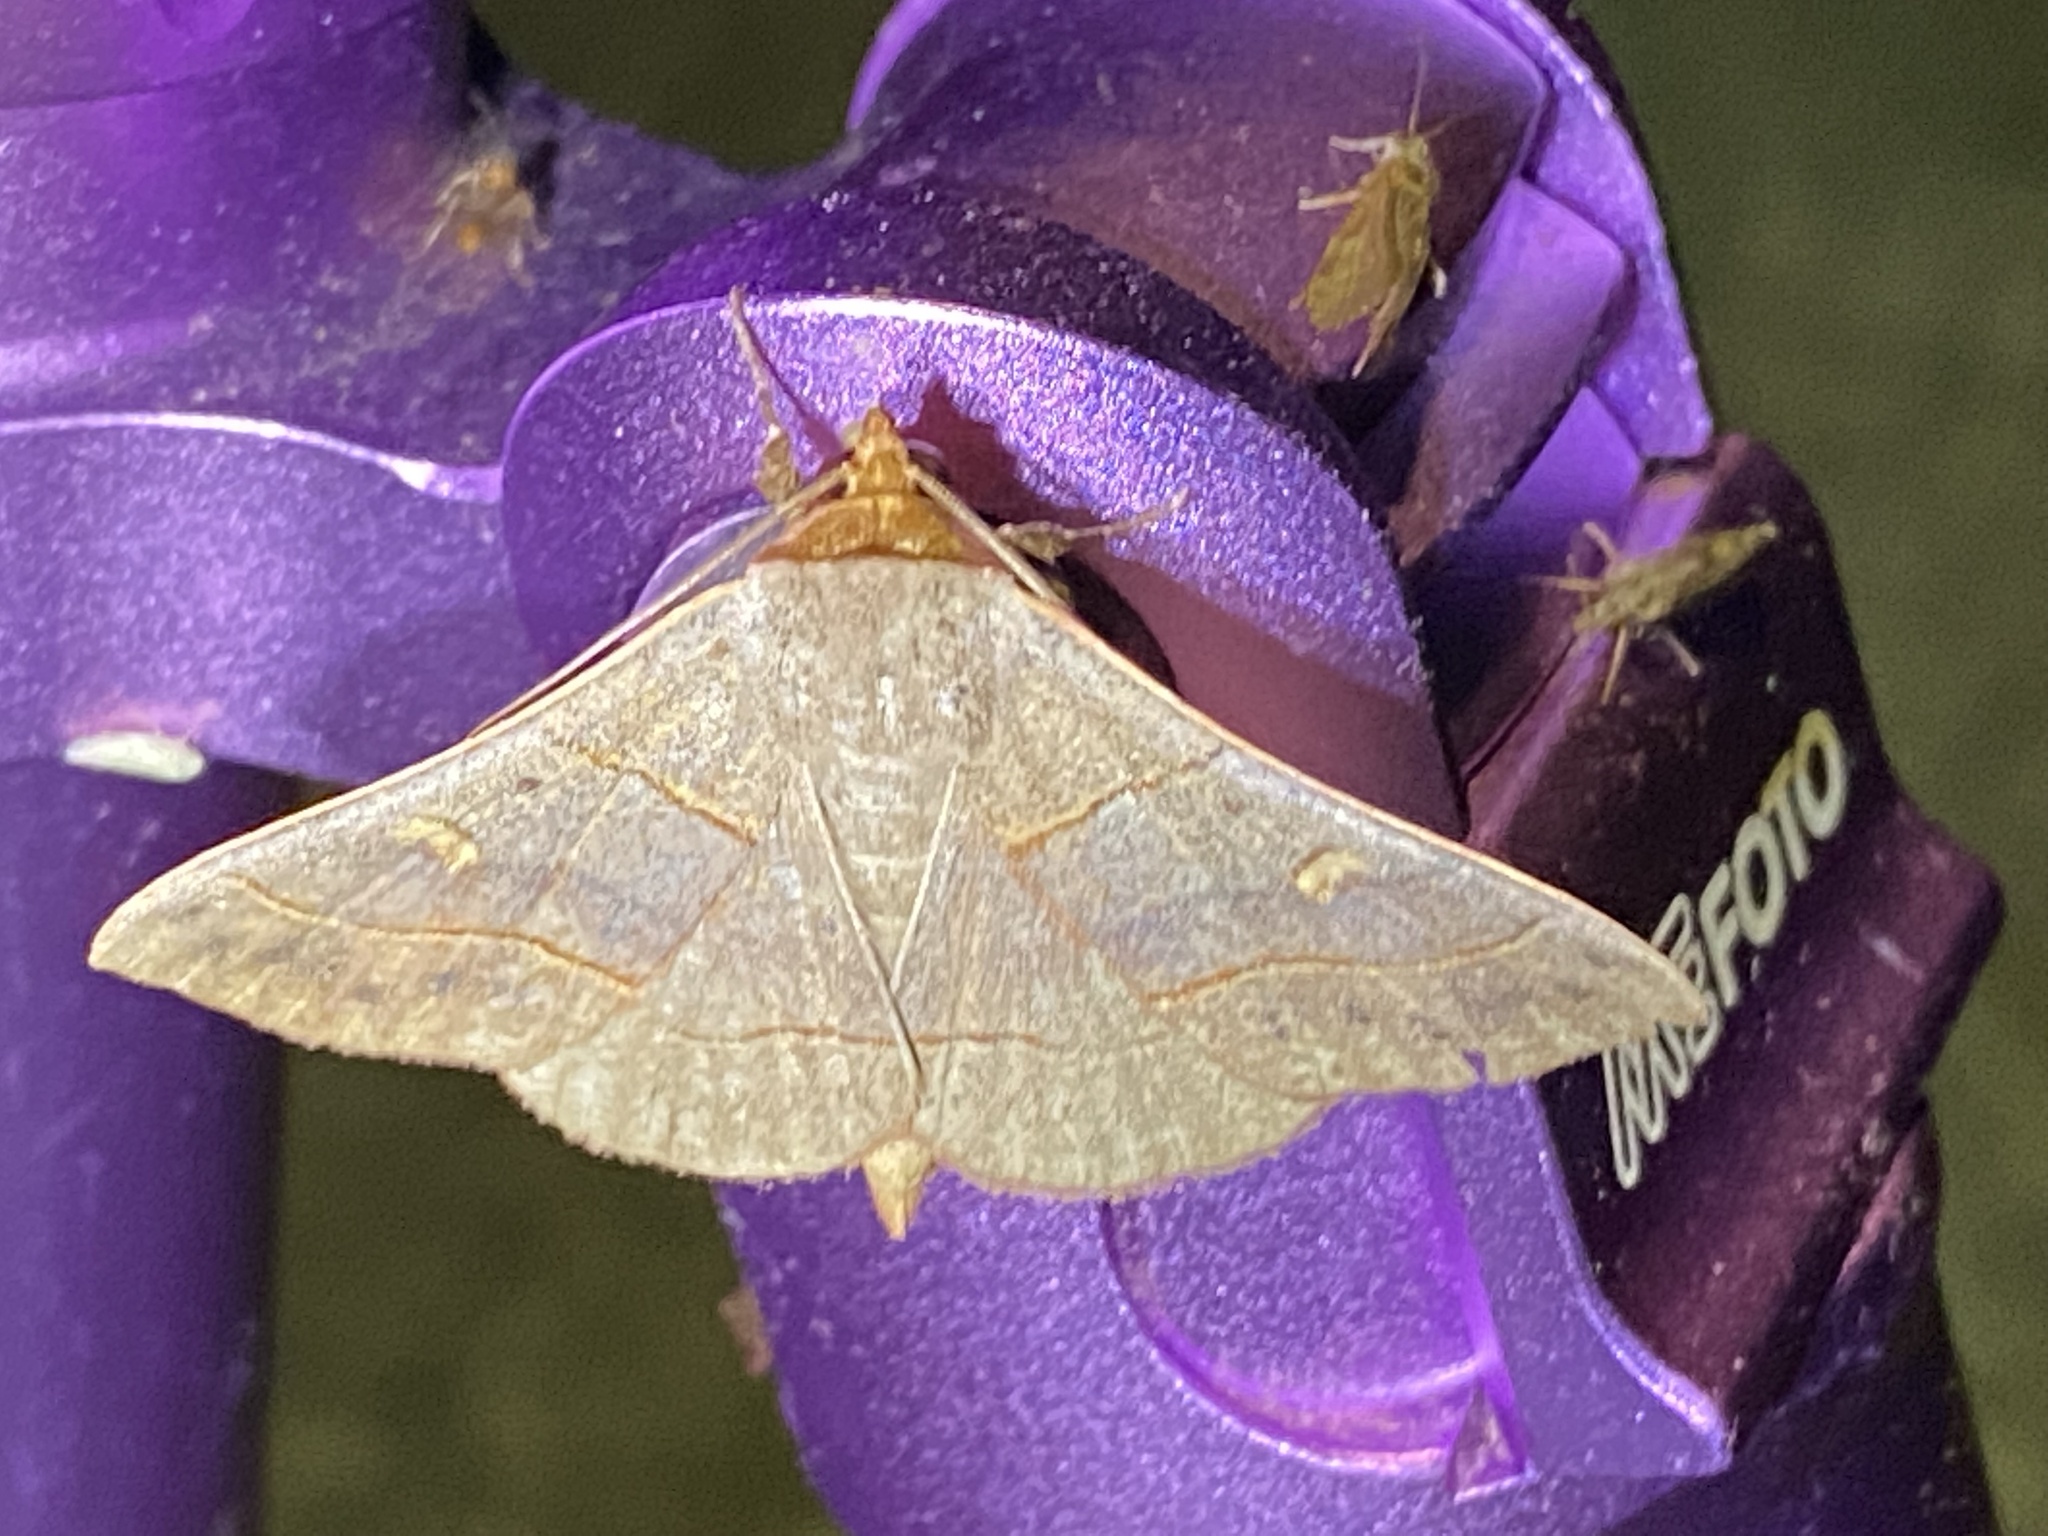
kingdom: Animalia
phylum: Arthropoda
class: Insecta
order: Lepidoptera
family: Erebidae
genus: Panopoda
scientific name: Panopoda rufimargo
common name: Red-lined panopoda moth
